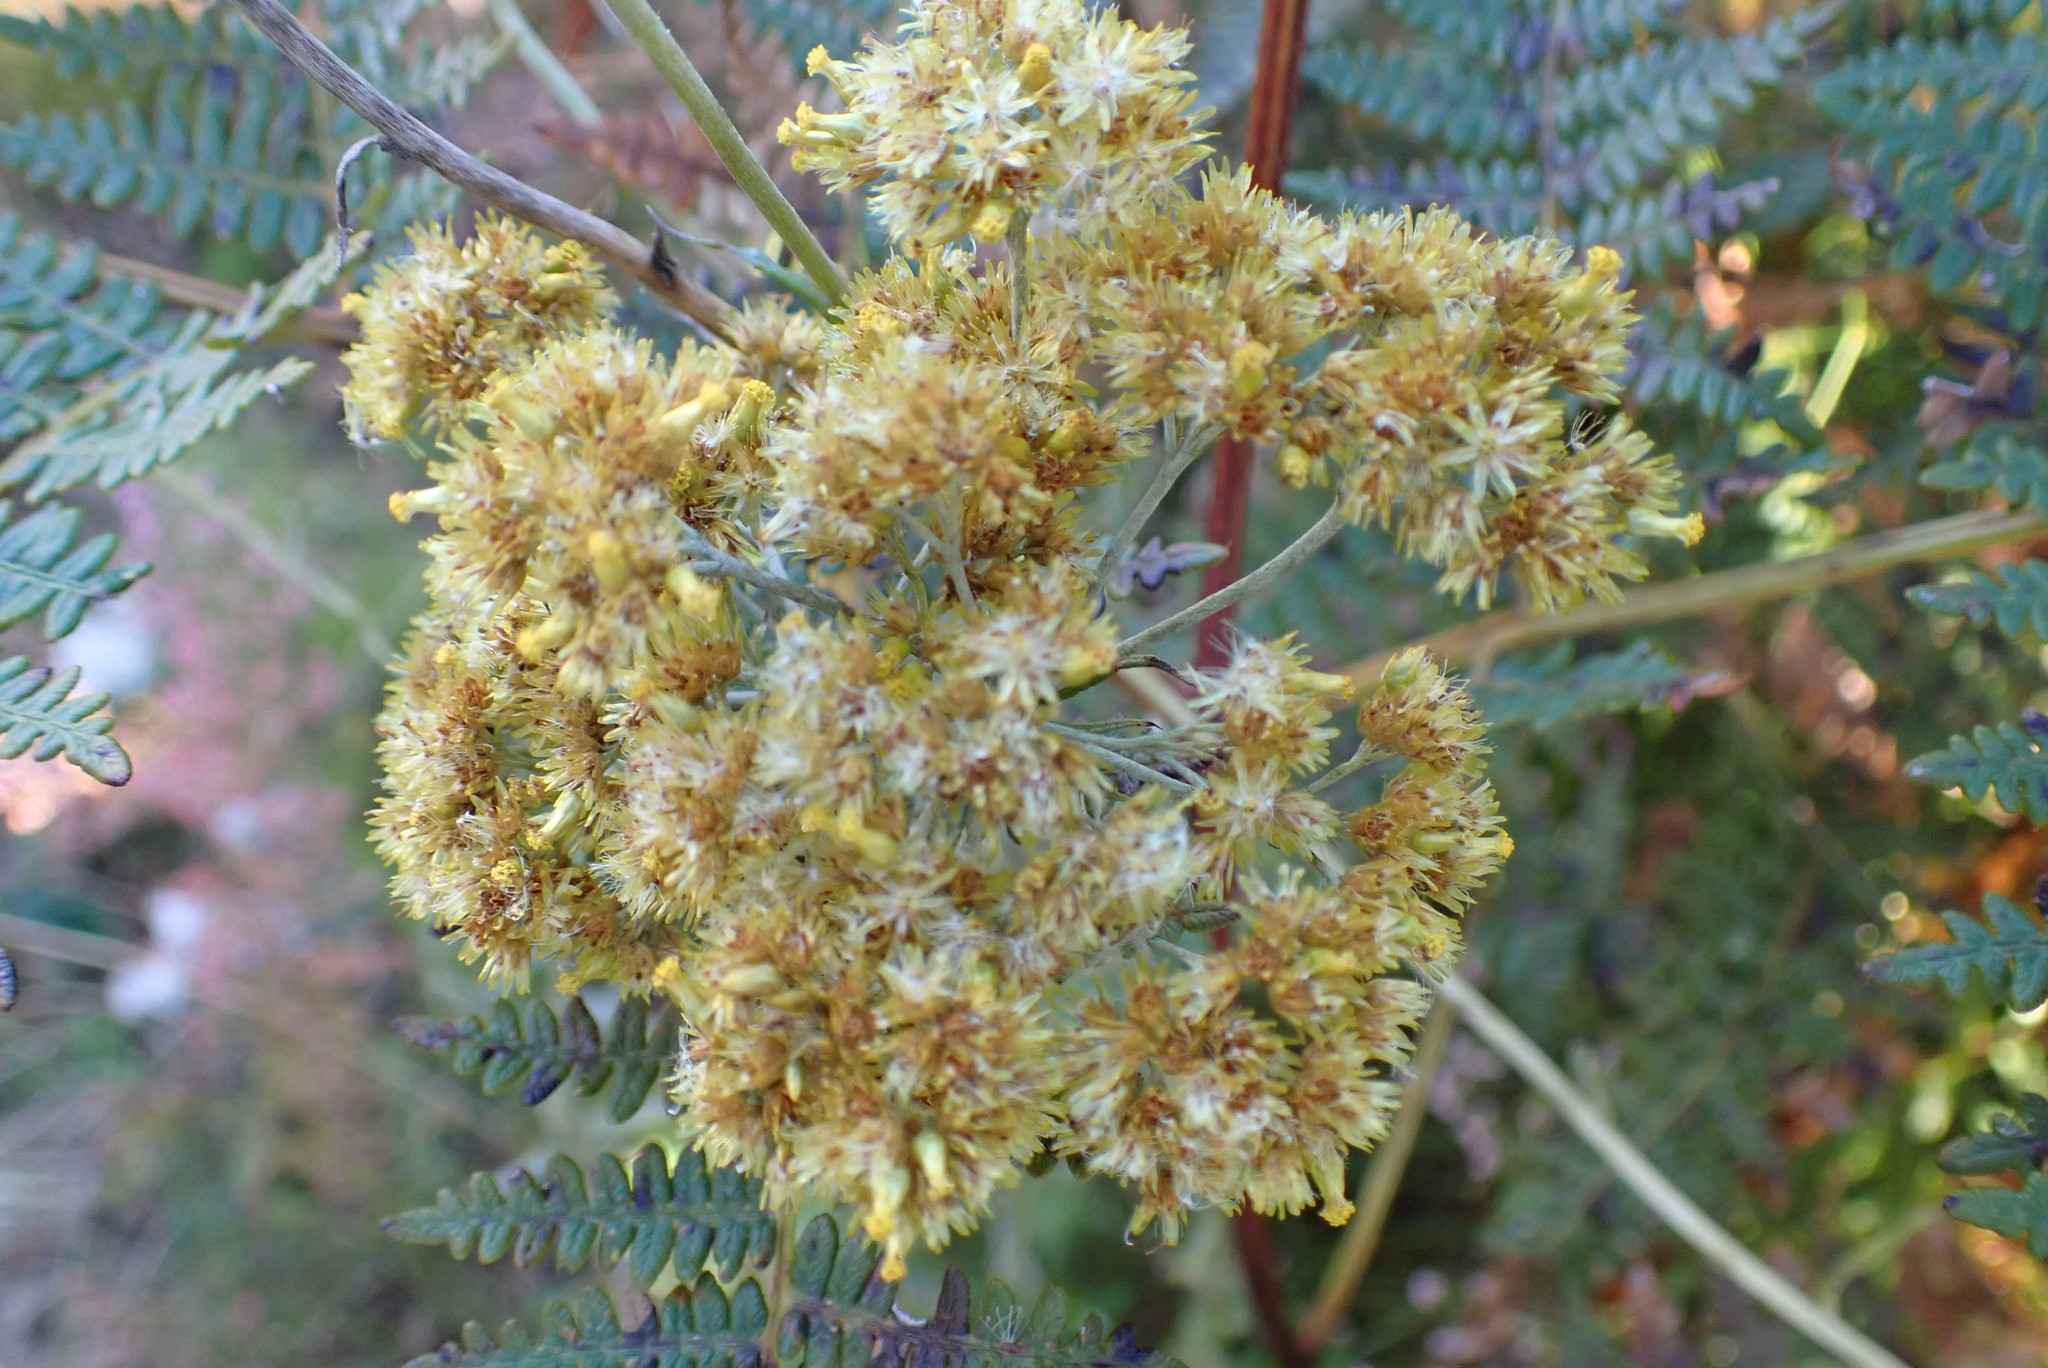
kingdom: Plantae
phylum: Tracheophyta
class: Magnoliopsida
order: Asterales
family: Asteraceae
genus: Helichrysum
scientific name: Helichrysum cymosum
